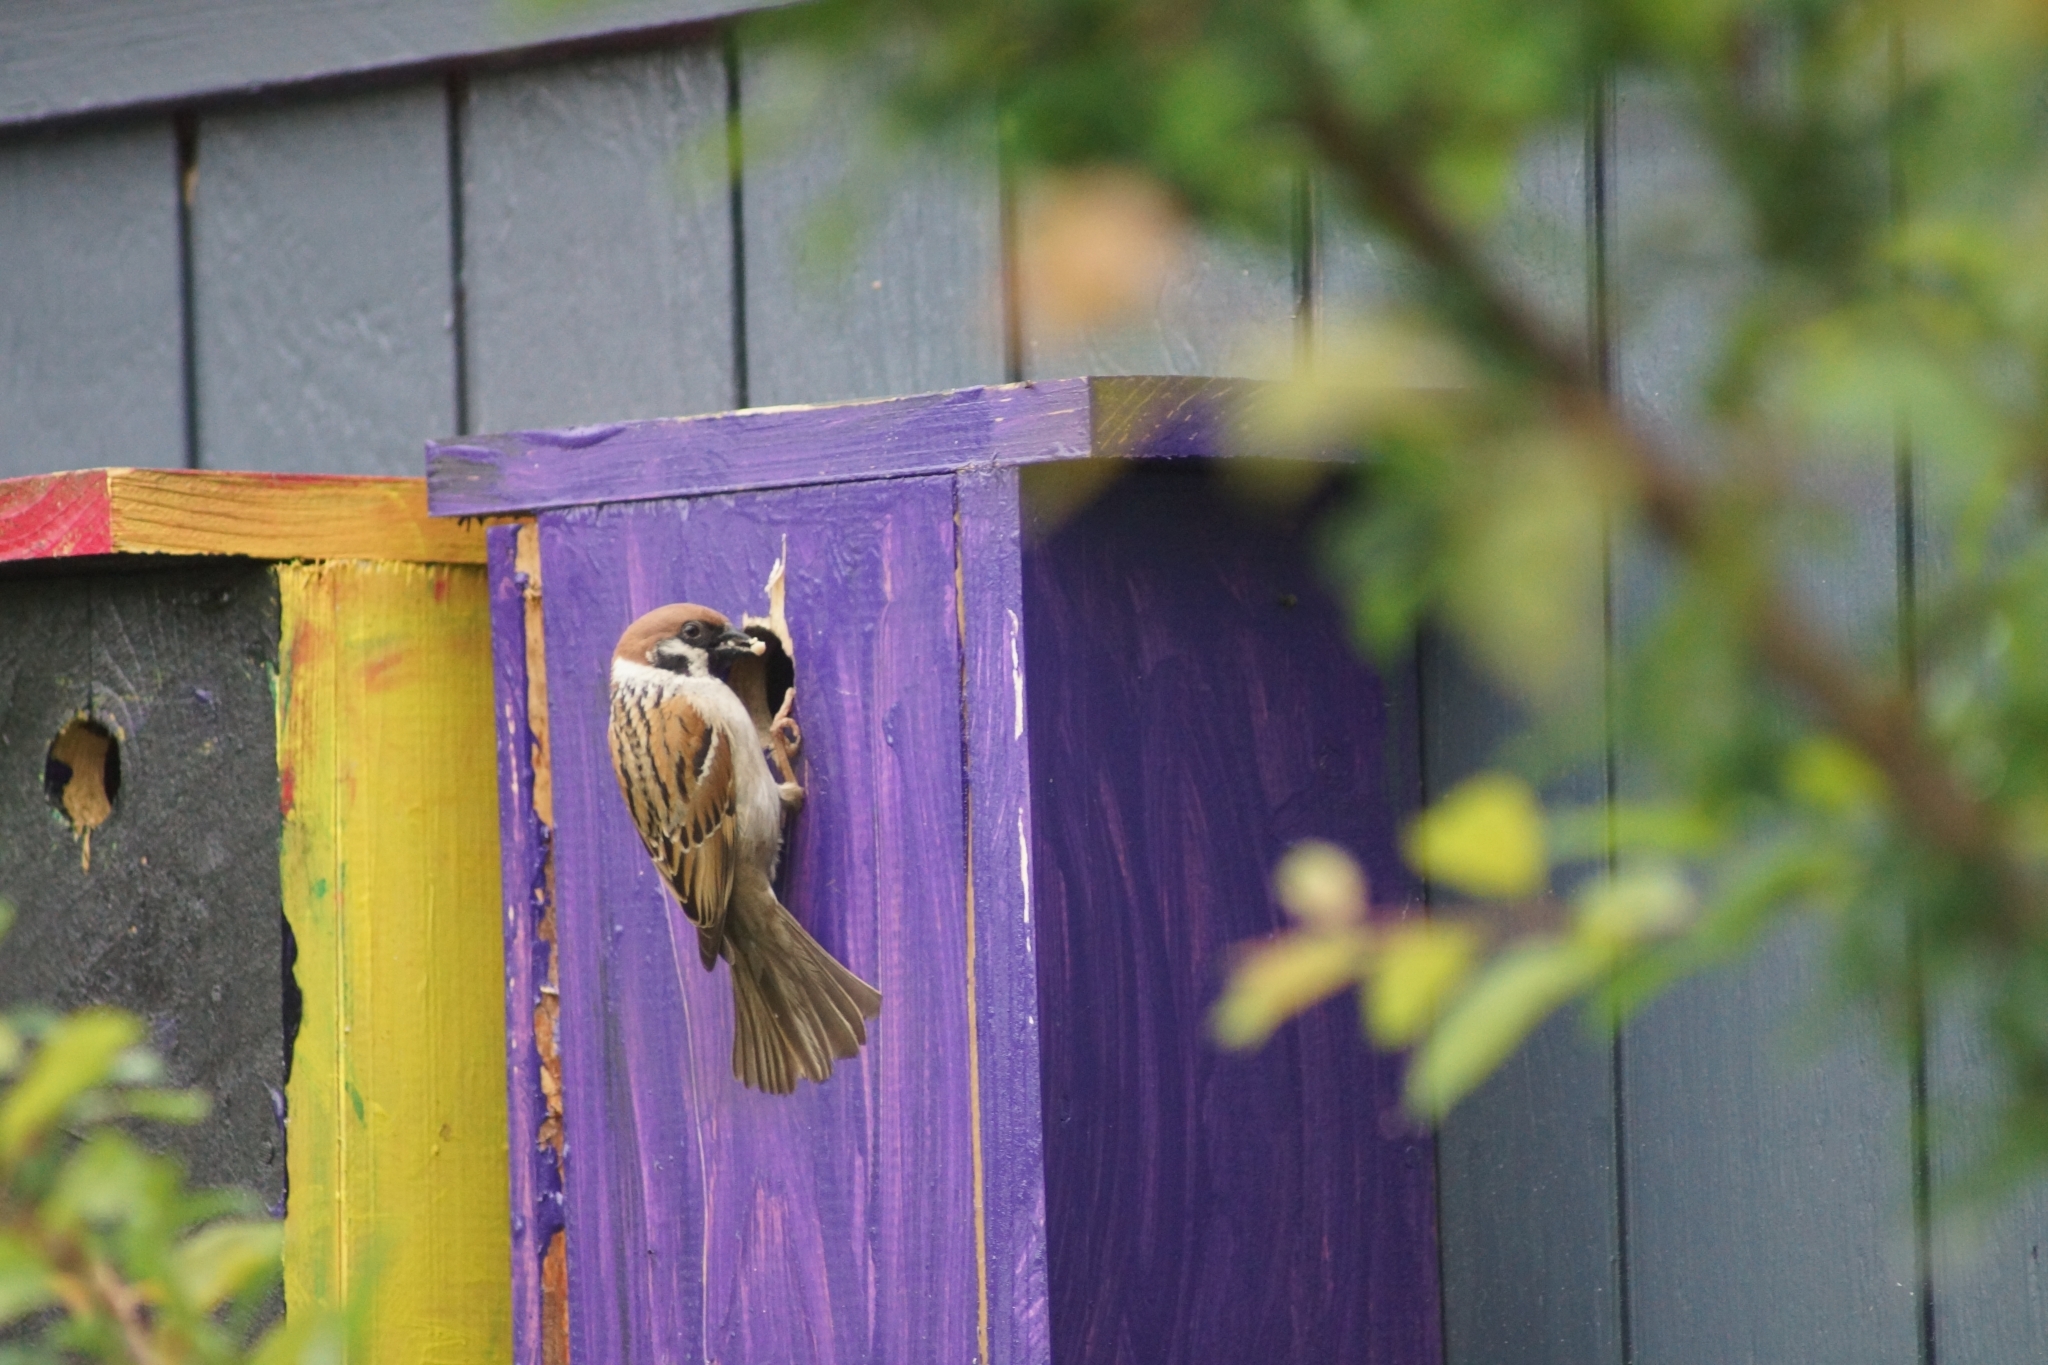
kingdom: Animalia
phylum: Chordata
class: Aves
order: Passeriformes
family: Passeridae
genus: Passer
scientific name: Passer montanus
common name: Eurasian tree sparrow
